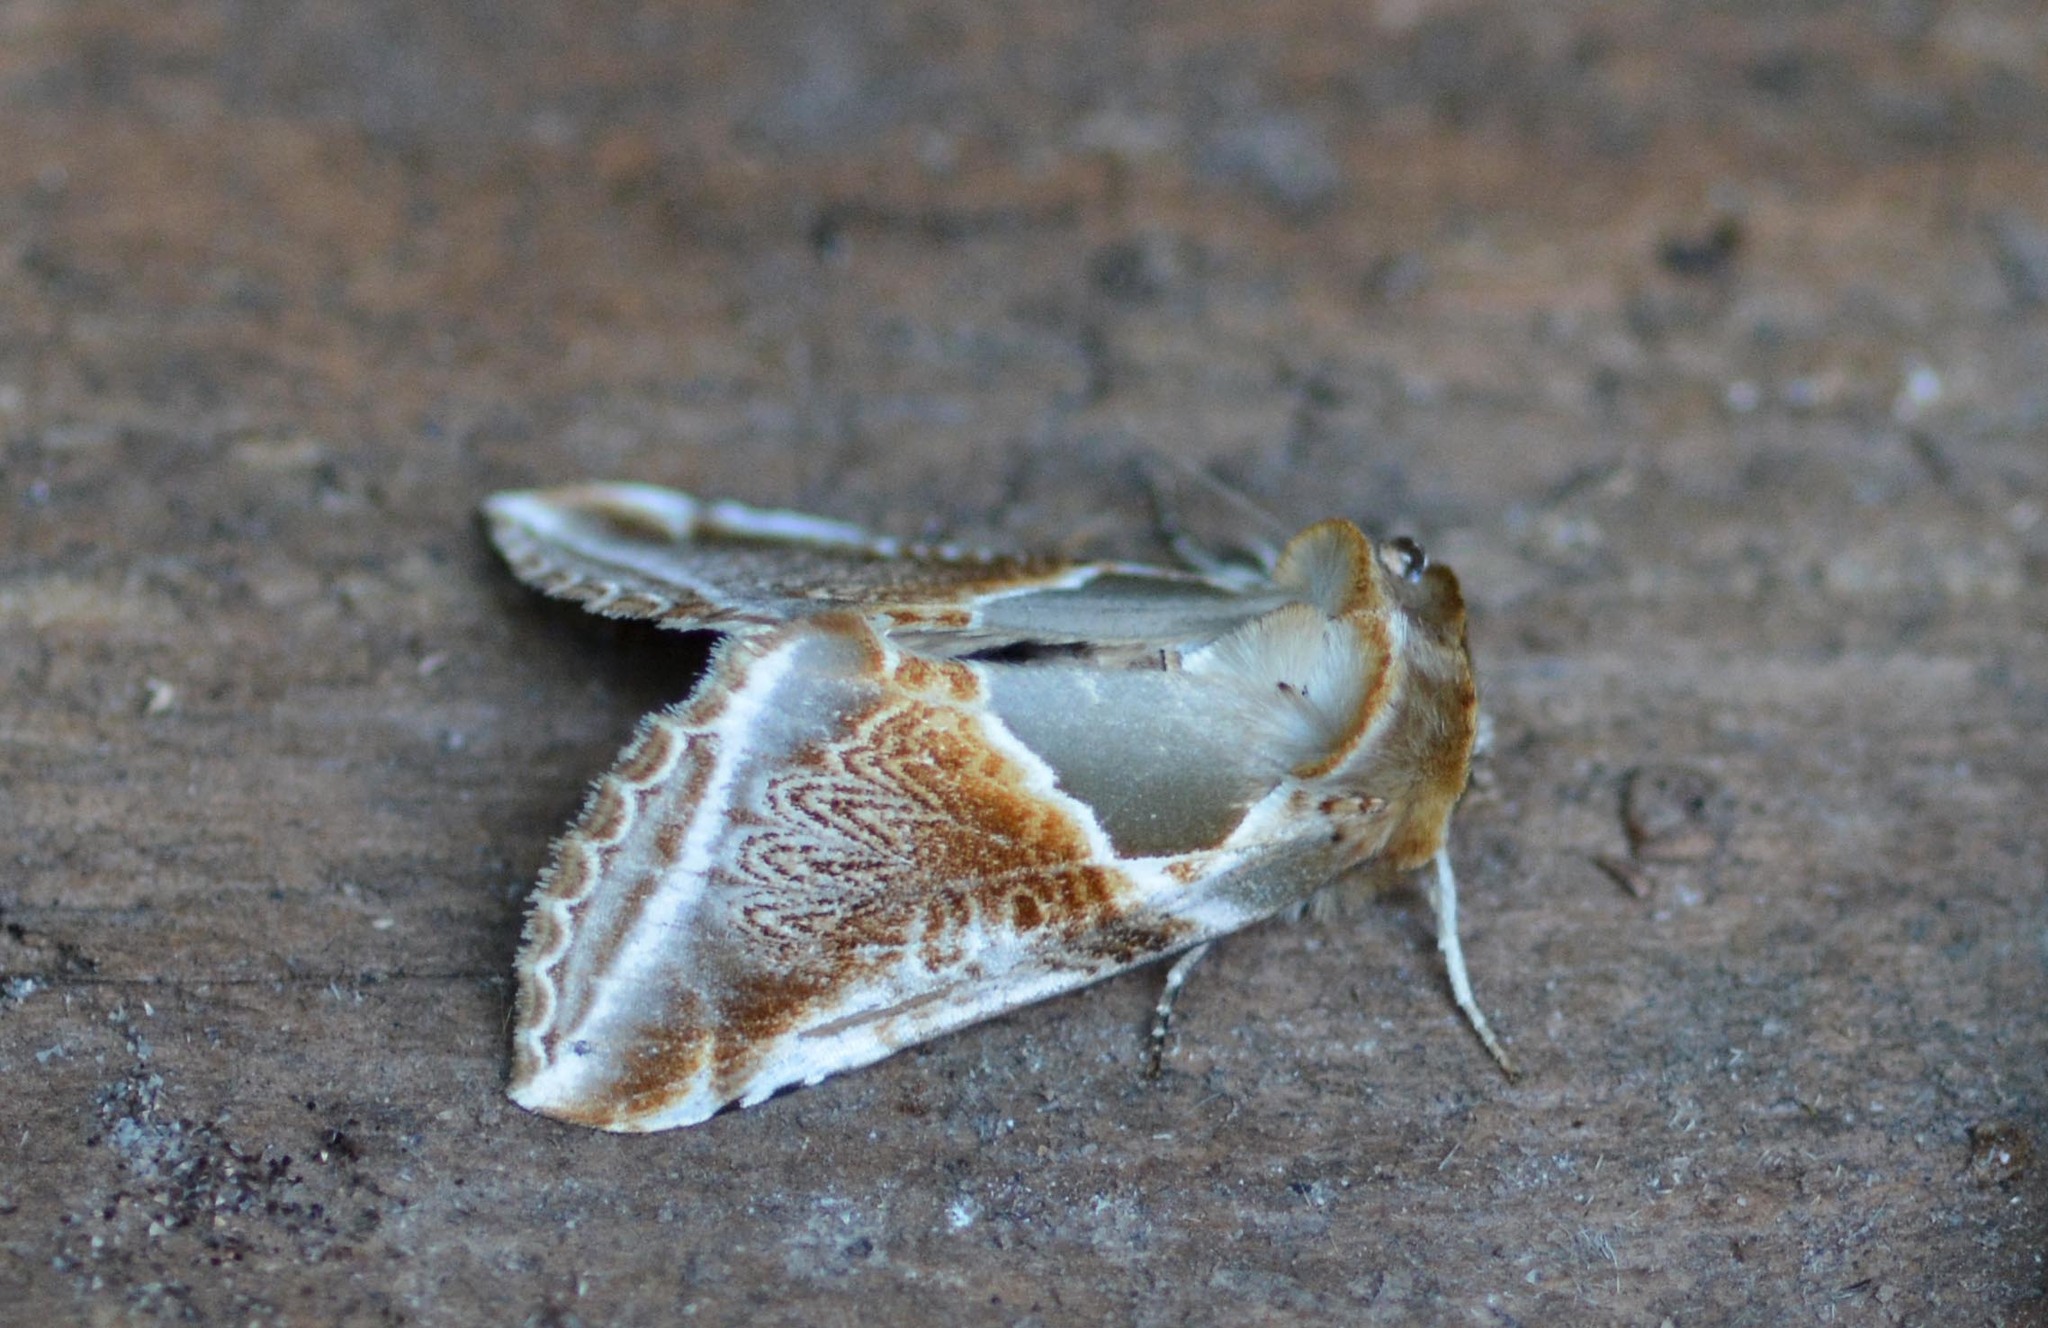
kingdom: Animalia
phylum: Arthropoda
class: Insecta
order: Lepidoptera
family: Drepanidae
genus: Habrosyne
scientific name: Habrosyne pyritoides
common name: Buff arches
